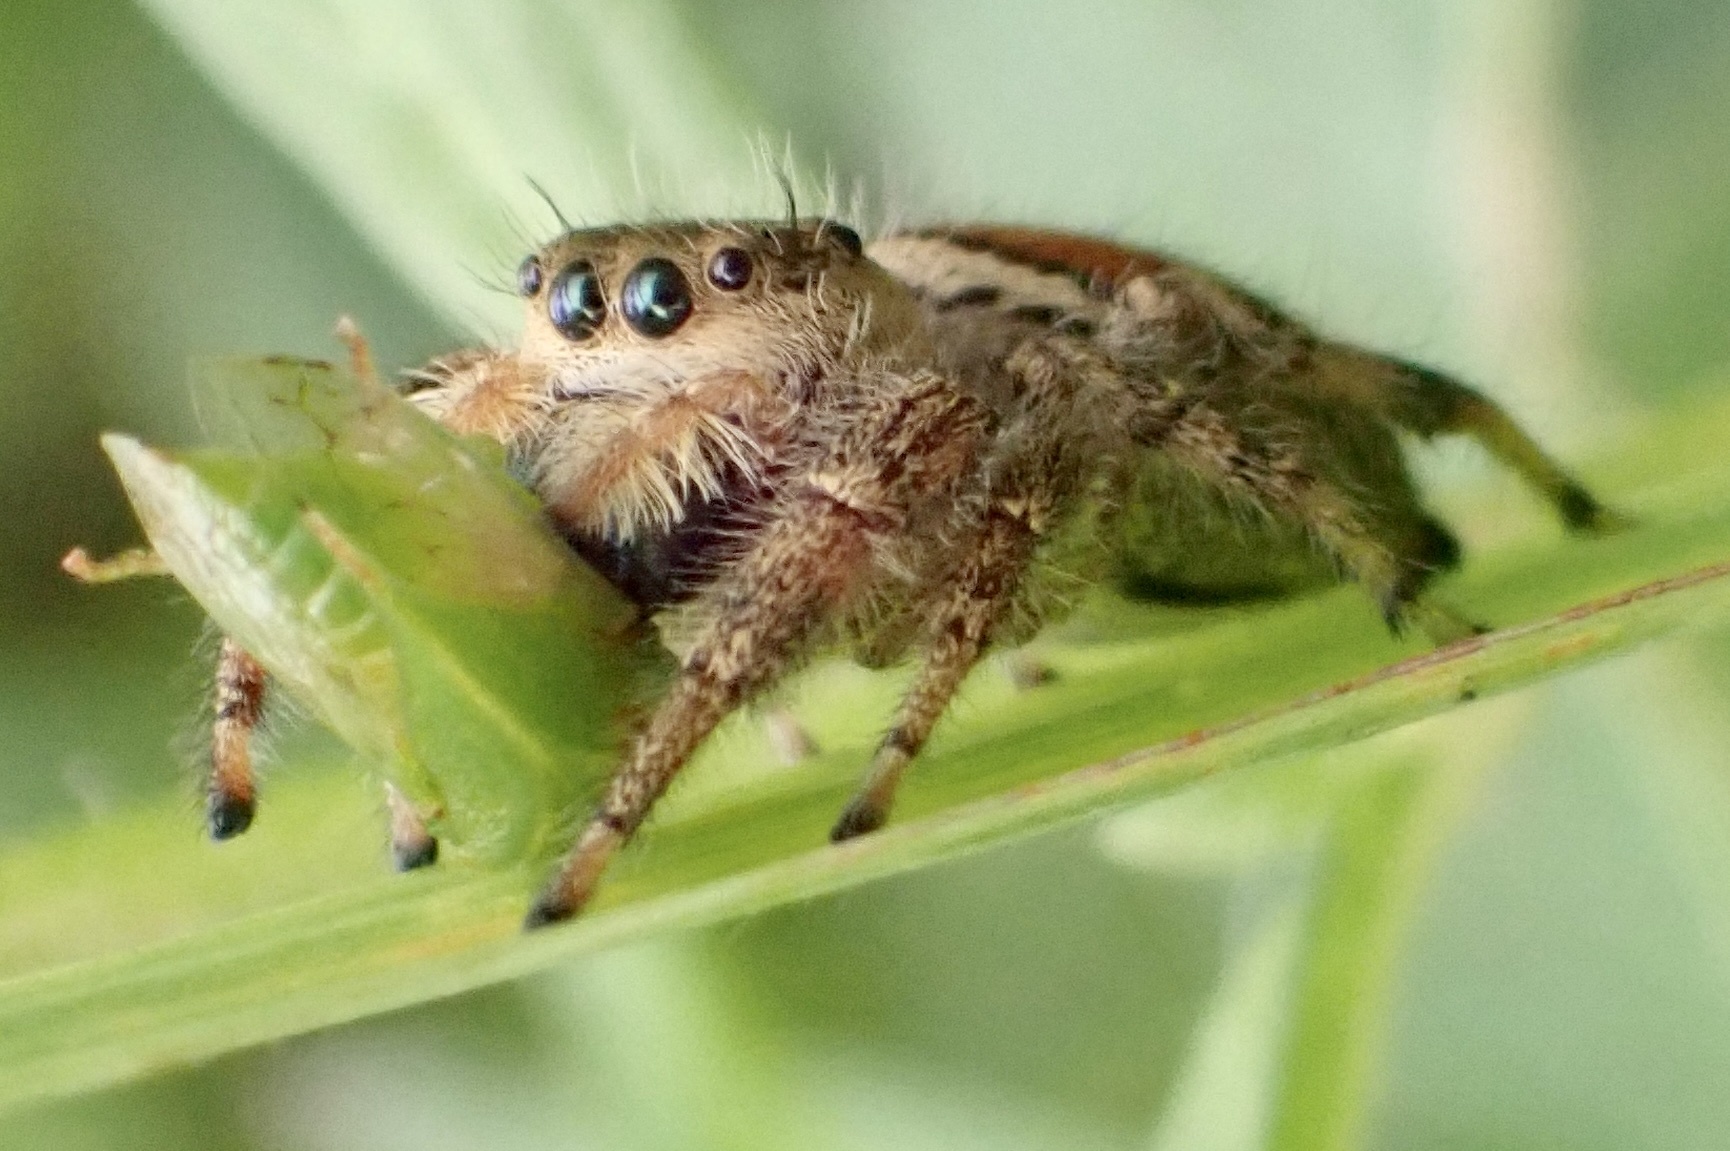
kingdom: Animalia
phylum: Arthropoda
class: Arachnida
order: Araneae
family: Salticidae
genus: Phidippus
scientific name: Phidippus clarus
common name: Brilliant jumping spider
